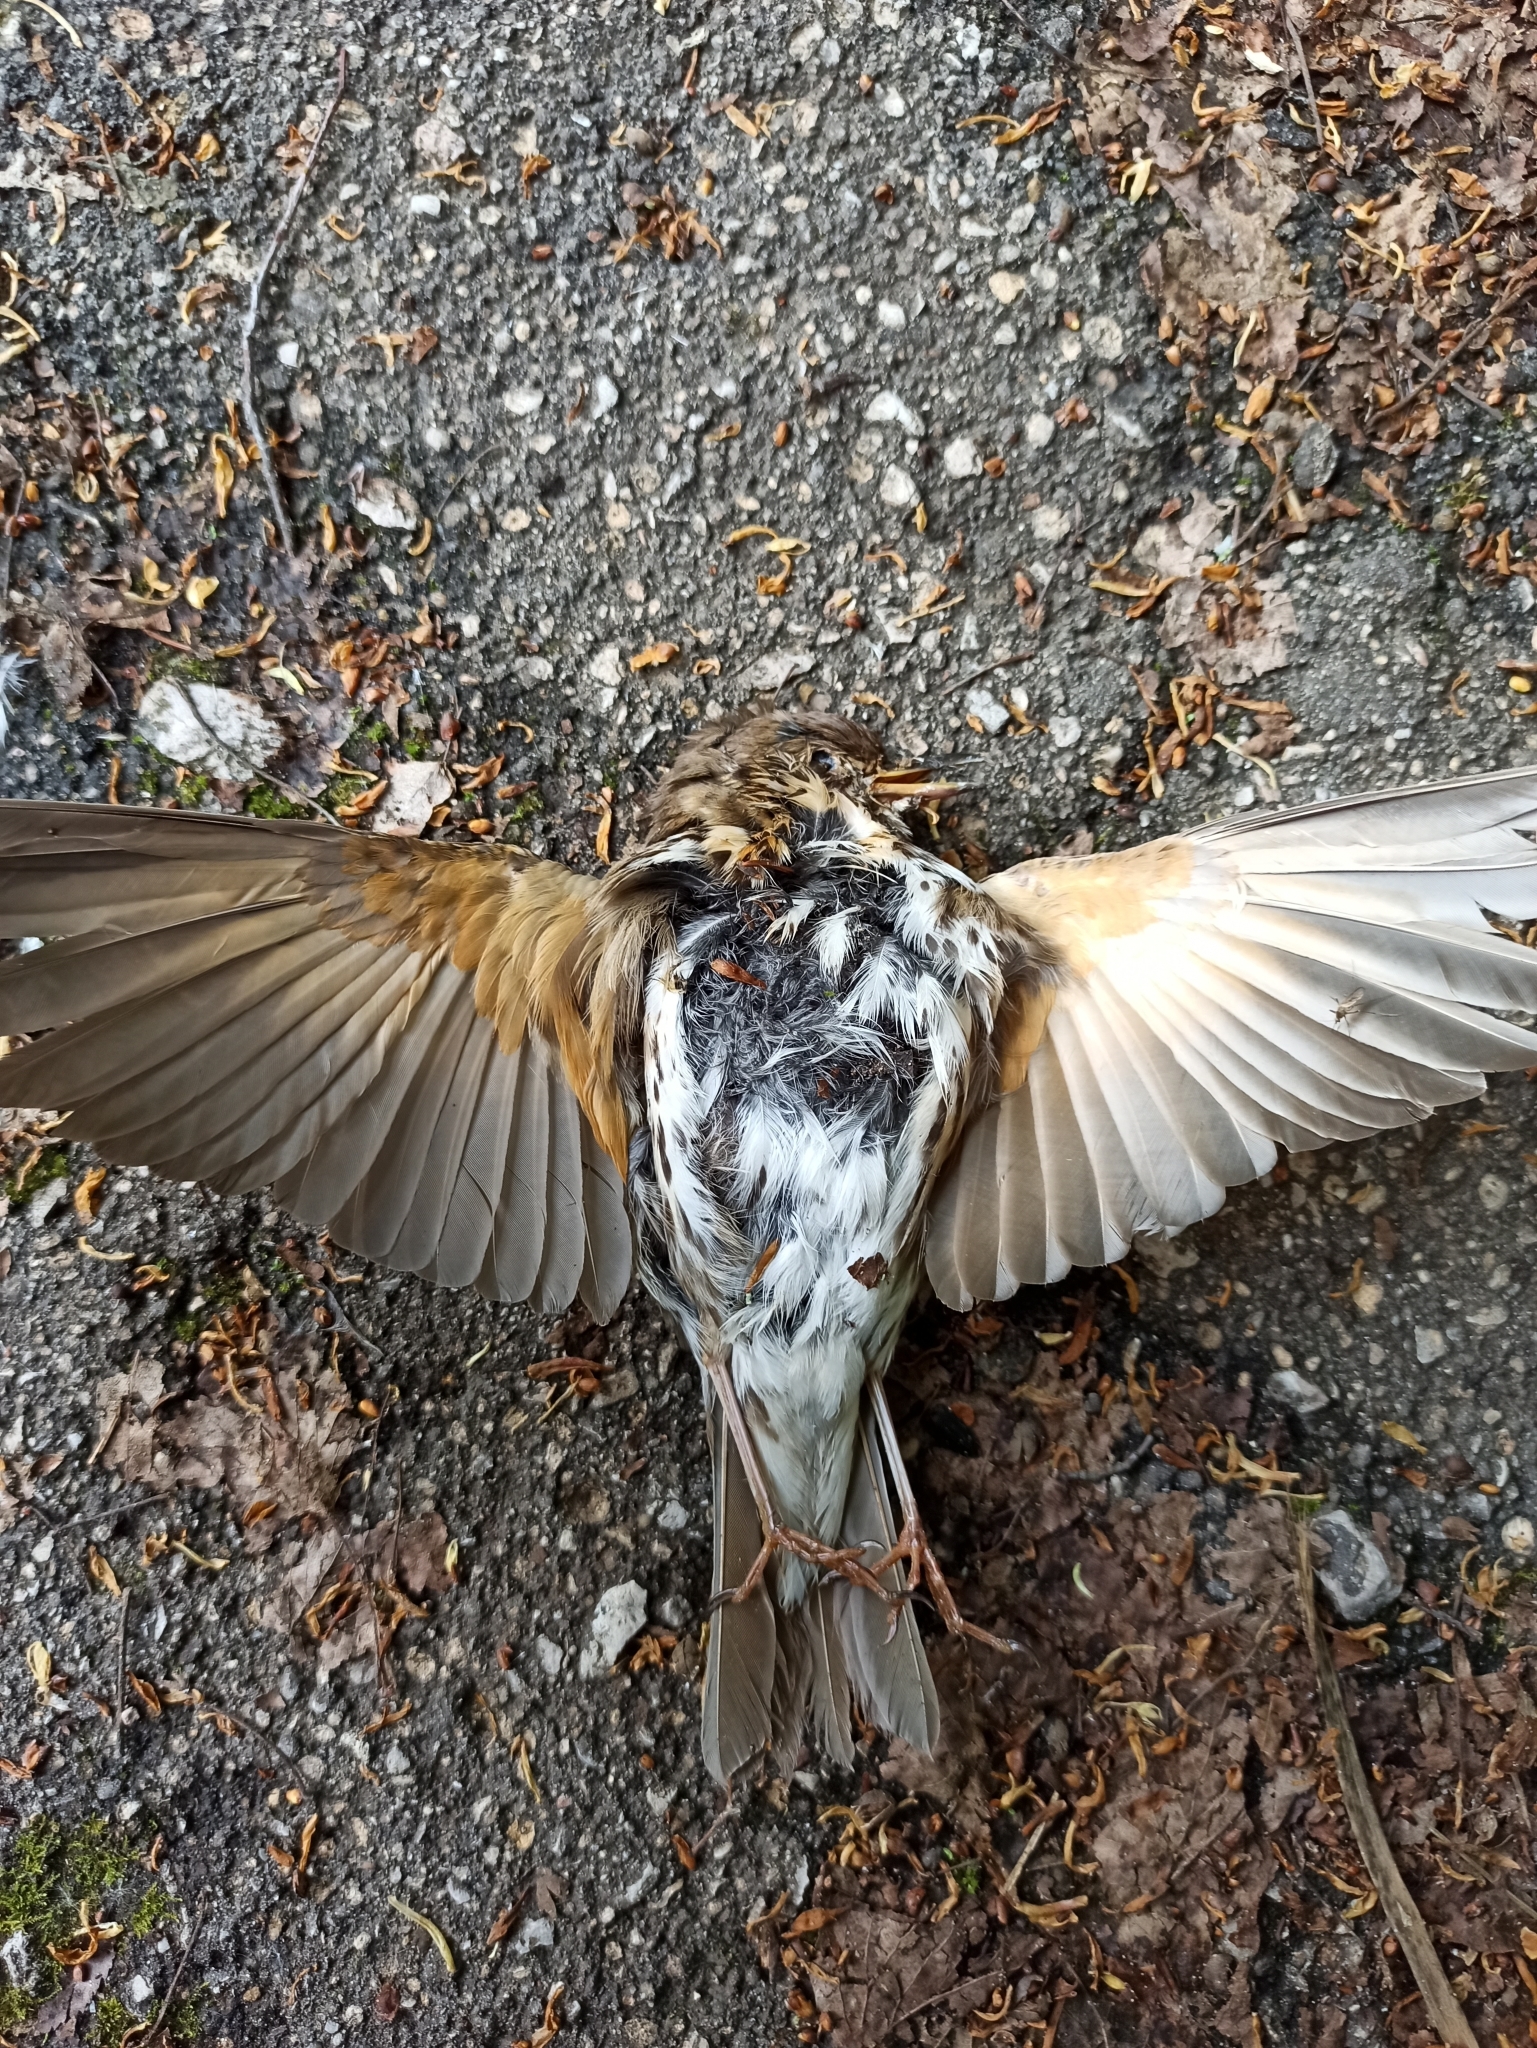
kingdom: Animalia
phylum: Chordata
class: Aves
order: Passeriformes
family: Turdidae
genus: Turdus
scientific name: Turdus iliacus
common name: Redwing
